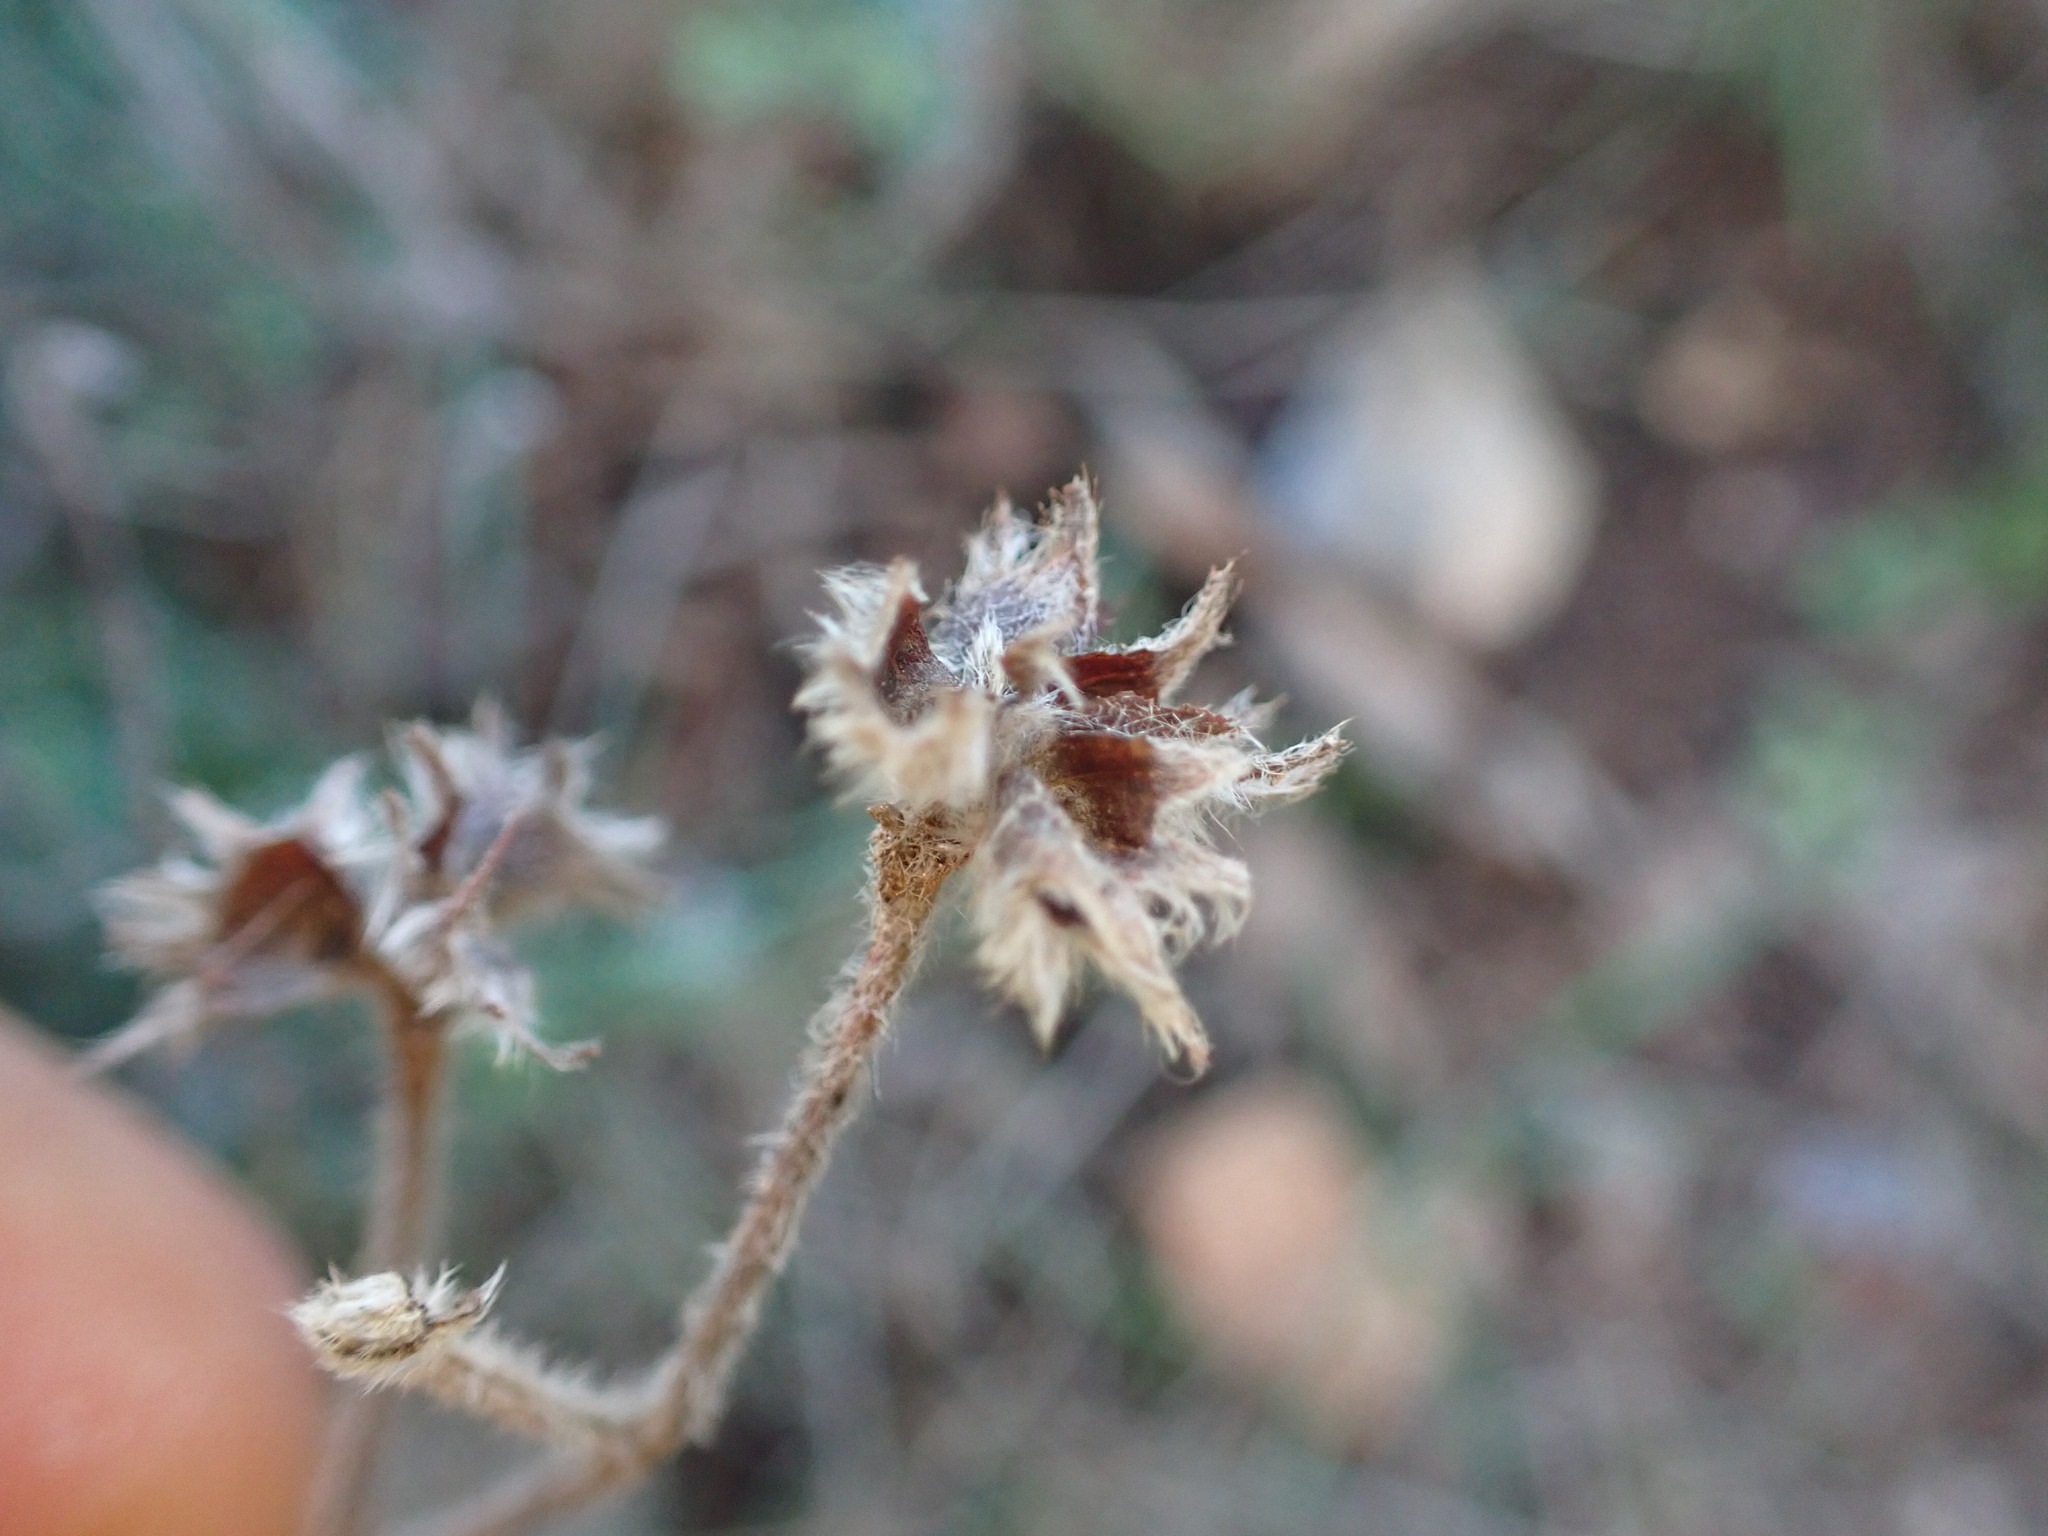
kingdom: Plantae
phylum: Tracheophyta
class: Magnoliopsida
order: Fabales
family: Fabaceae
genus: Lotus
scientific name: Lotus hirsutus
